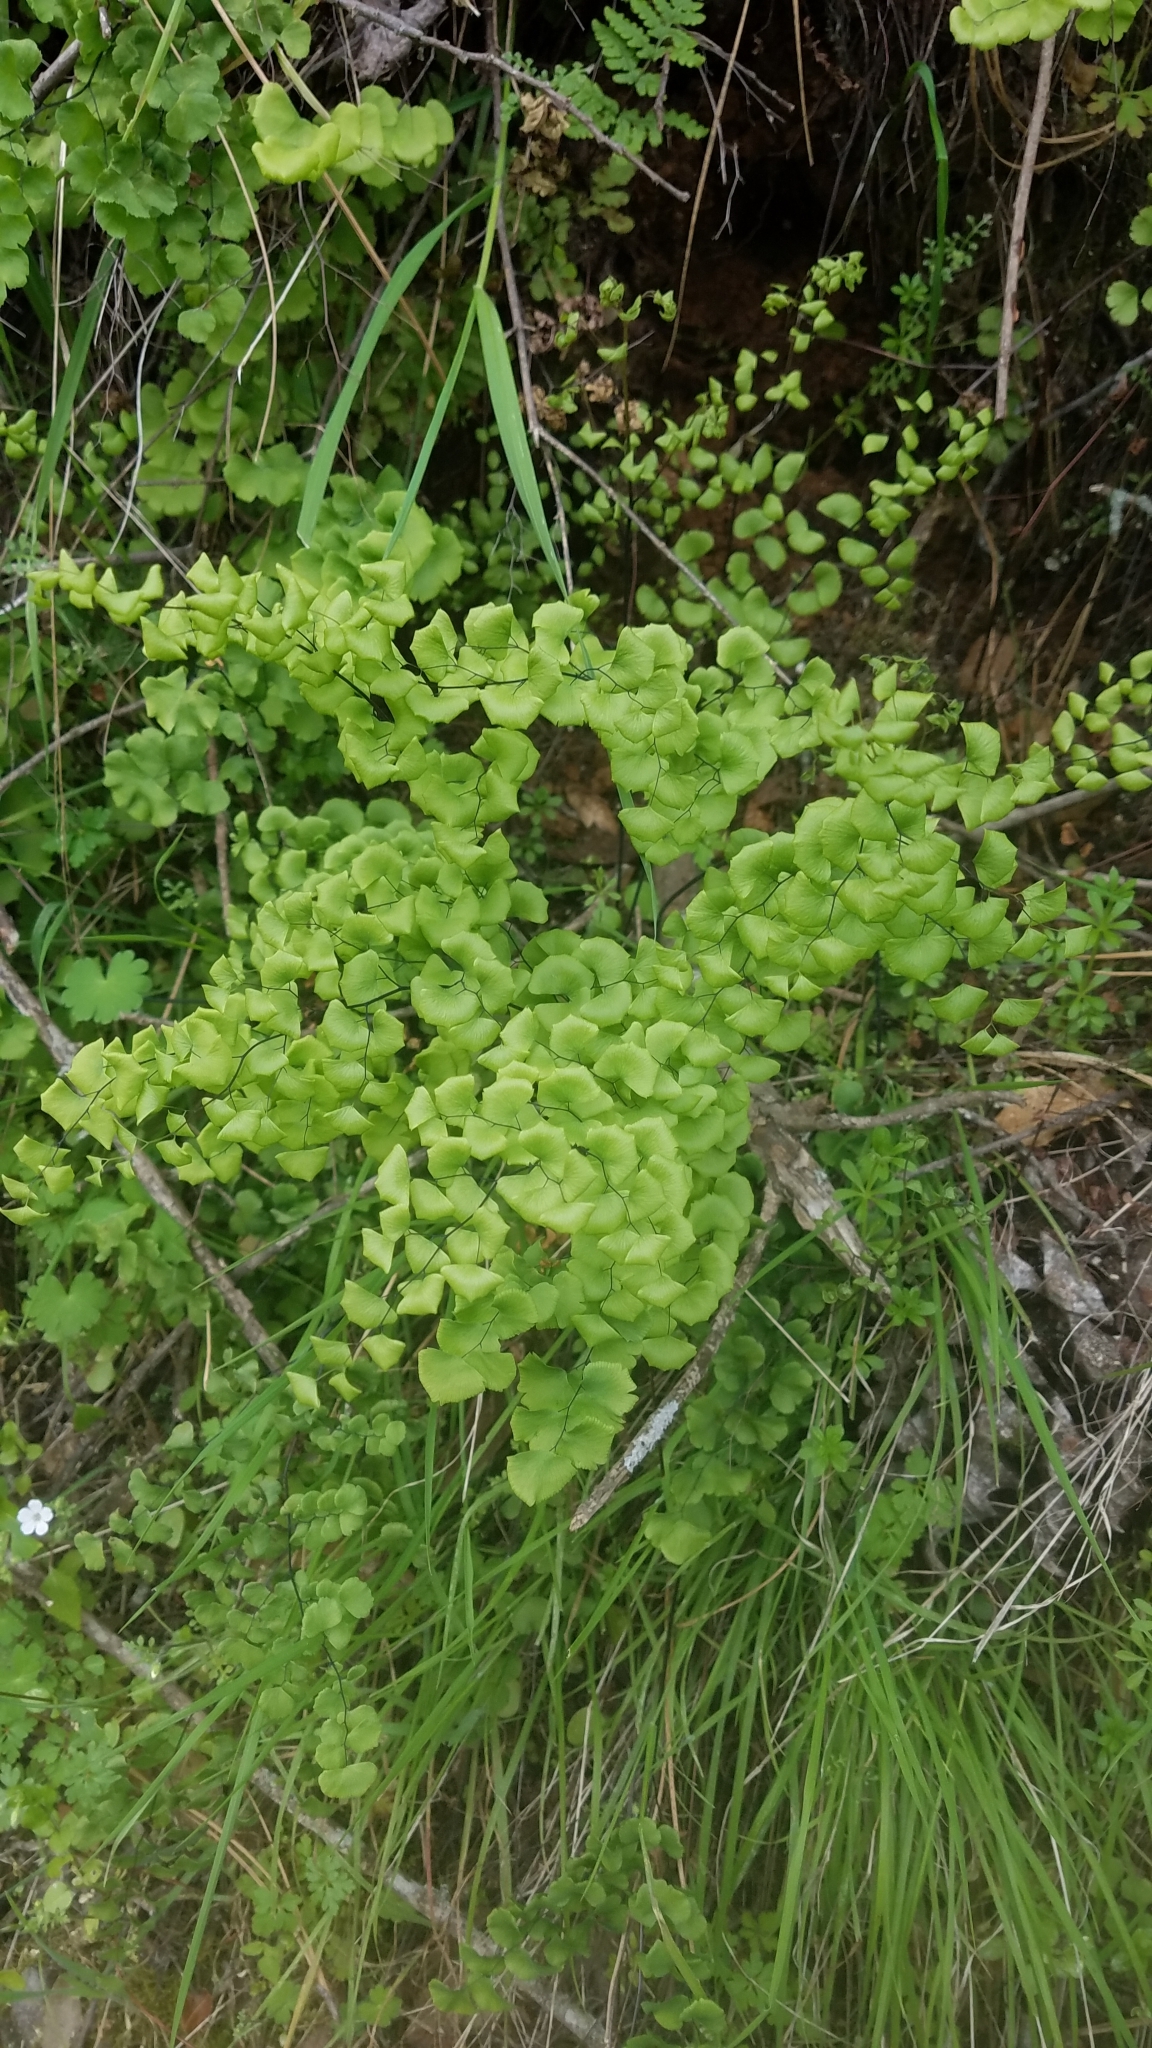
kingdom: Plantae
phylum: Tracheophyta
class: Polypodiopsida
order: Polypodiales
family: Pteridaceae
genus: Adiantum
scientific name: Adiantum jordanii
